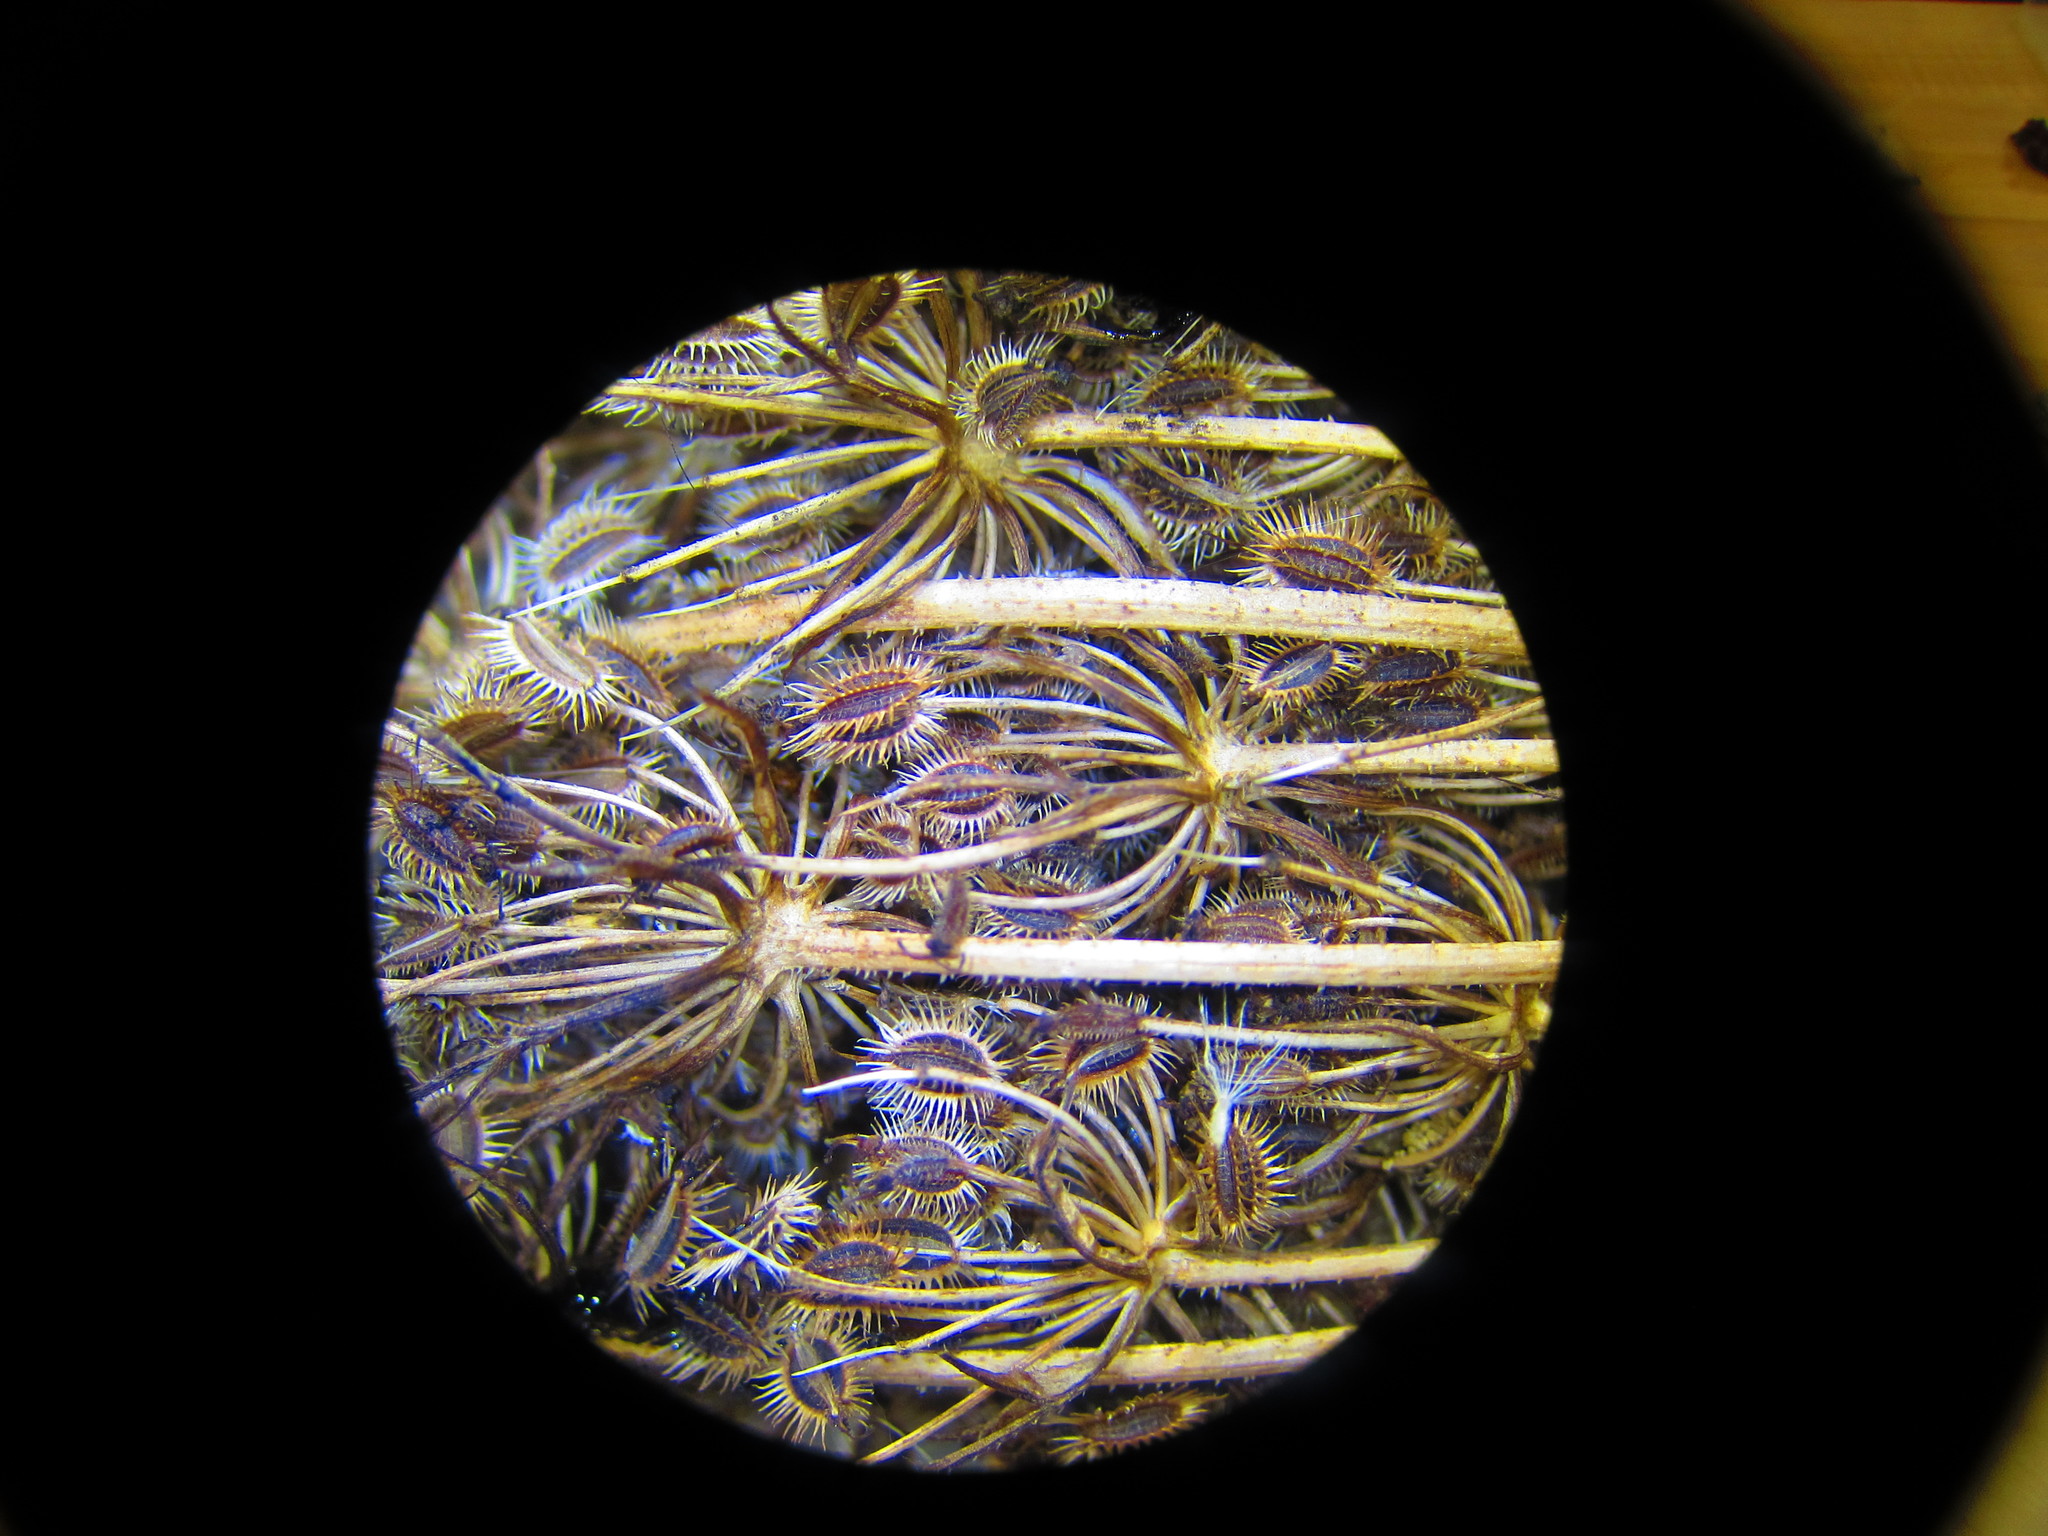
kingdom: Plantae
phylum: Tracheophyta
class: Magnoliopsida
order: Apiales
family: Apiaceae
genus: Daucus
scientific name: Daucus carota
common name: Wild carrot
